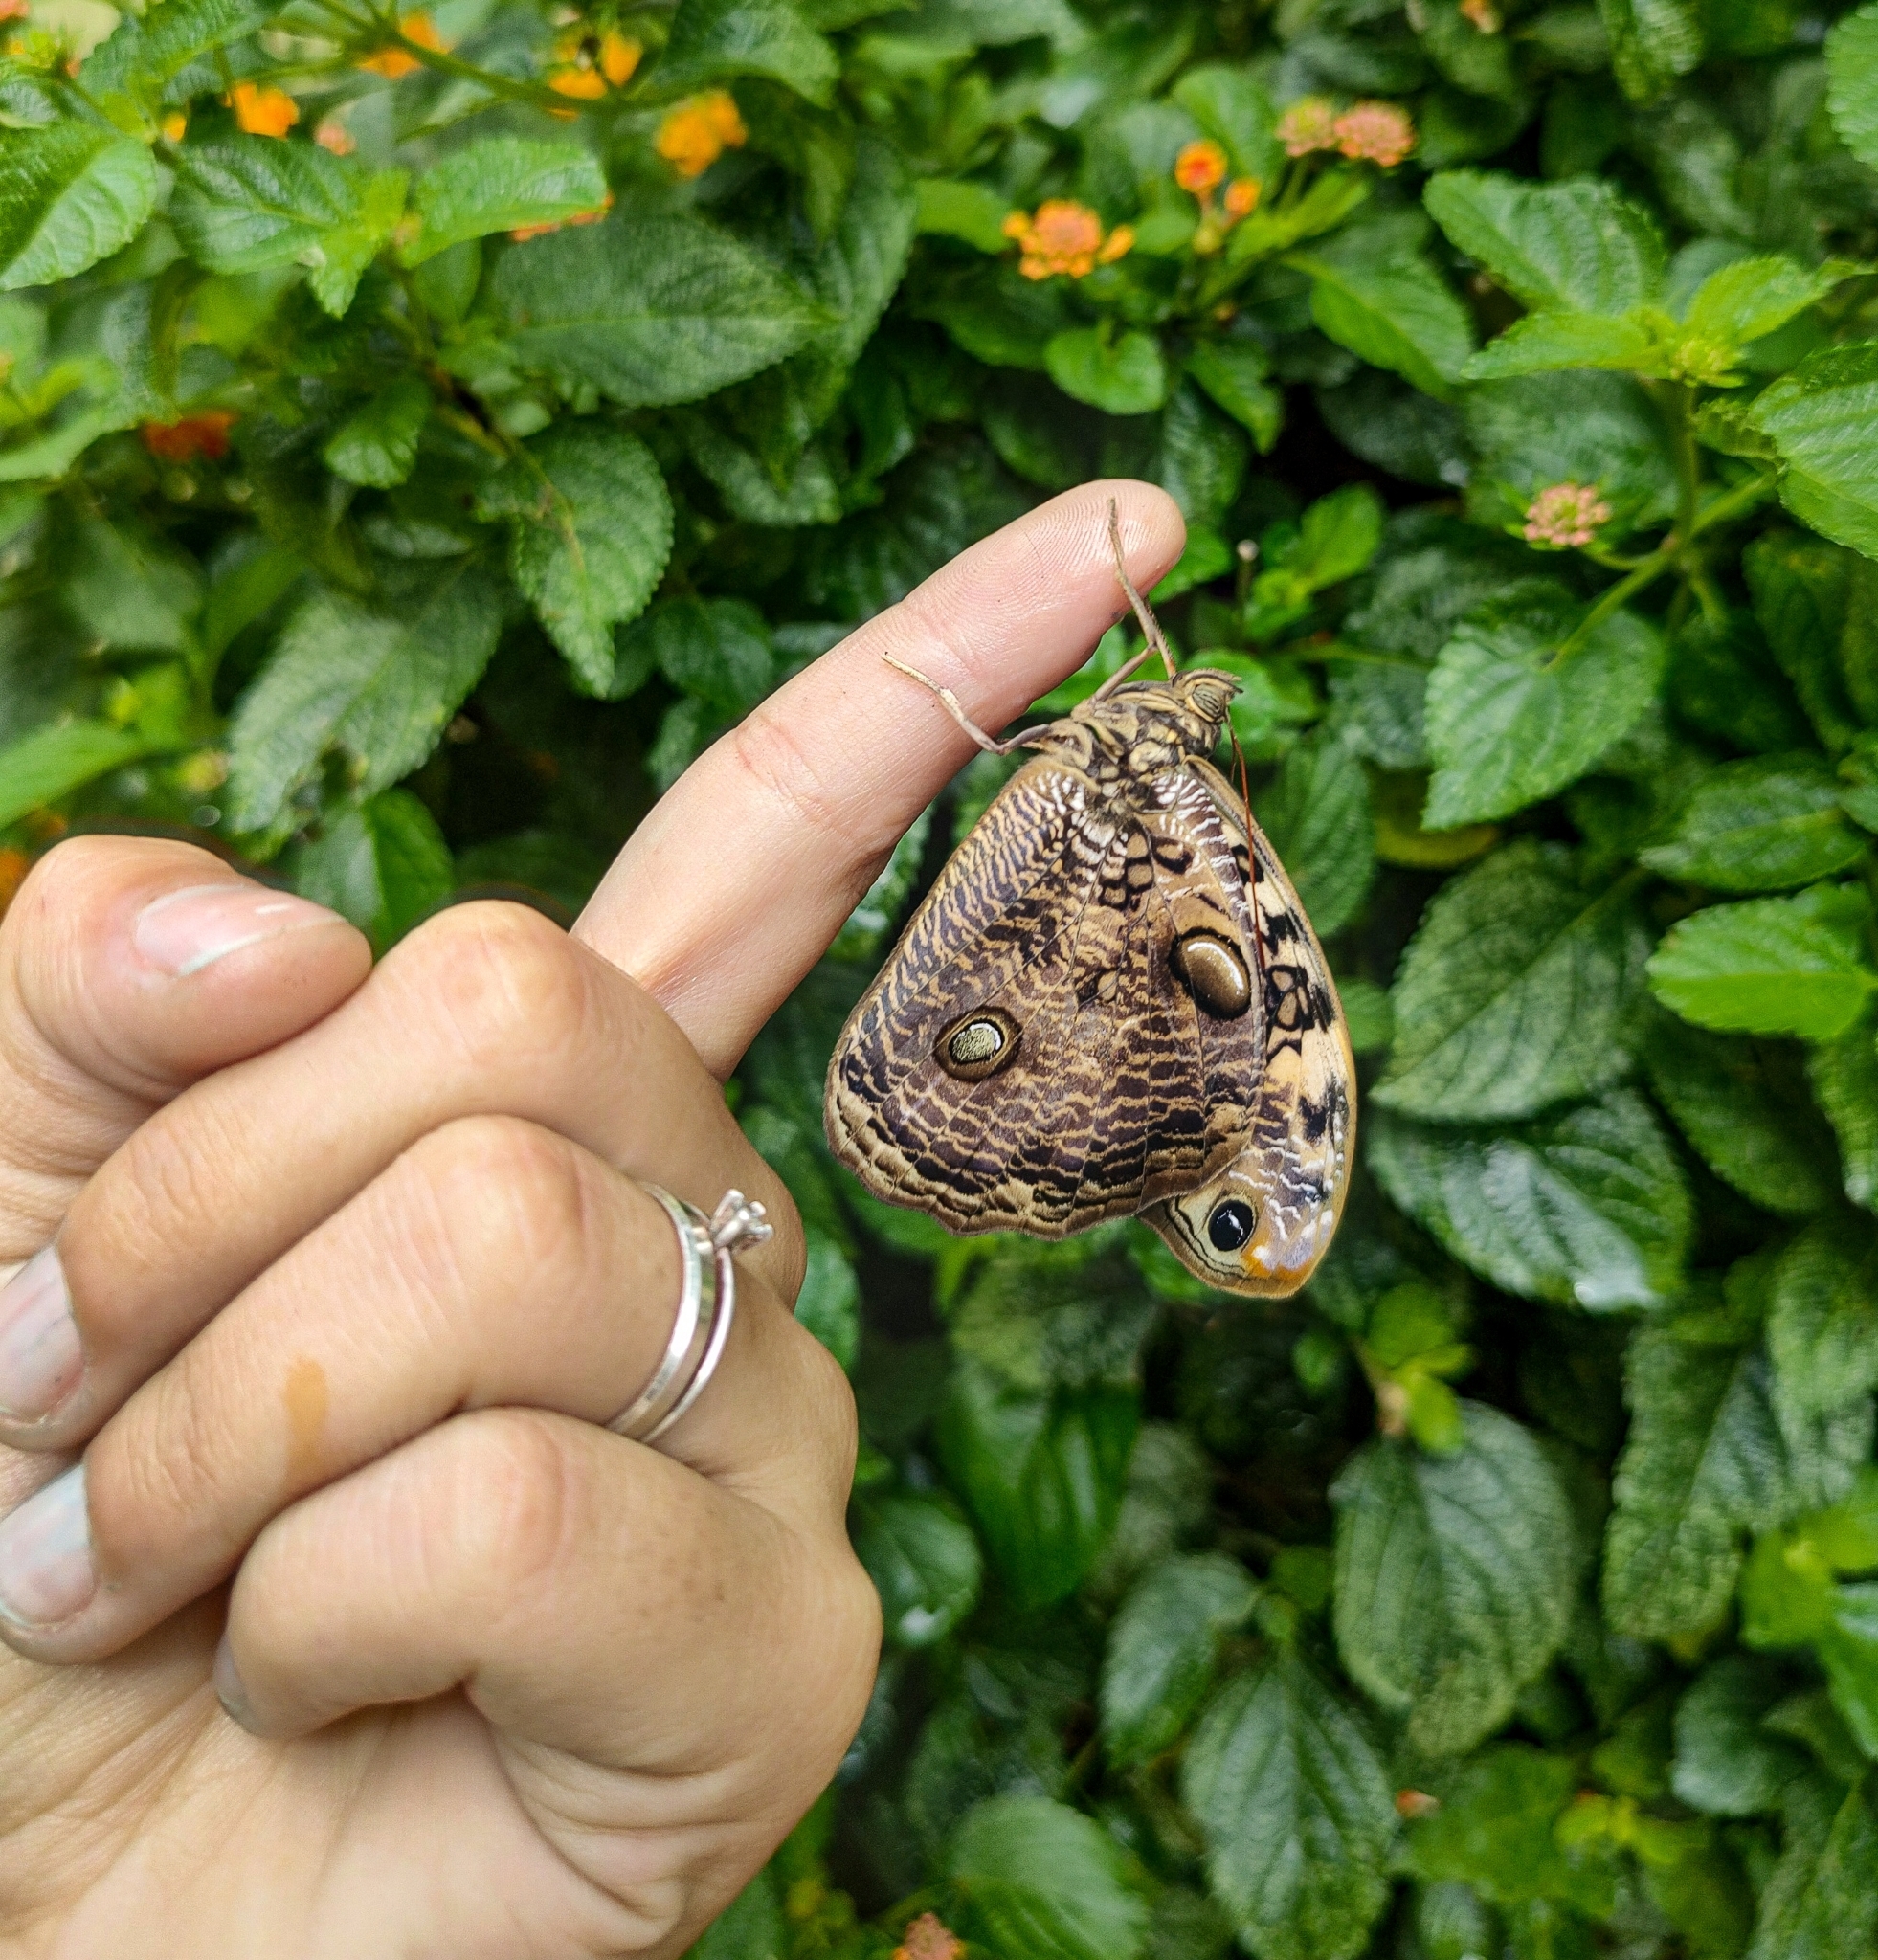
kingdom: Animalia
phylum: Arthropoda
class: Insecta
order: Lepidoptera
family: Nymphalidae
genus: Catoblepia
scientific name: Catoblepia amphirhoe
